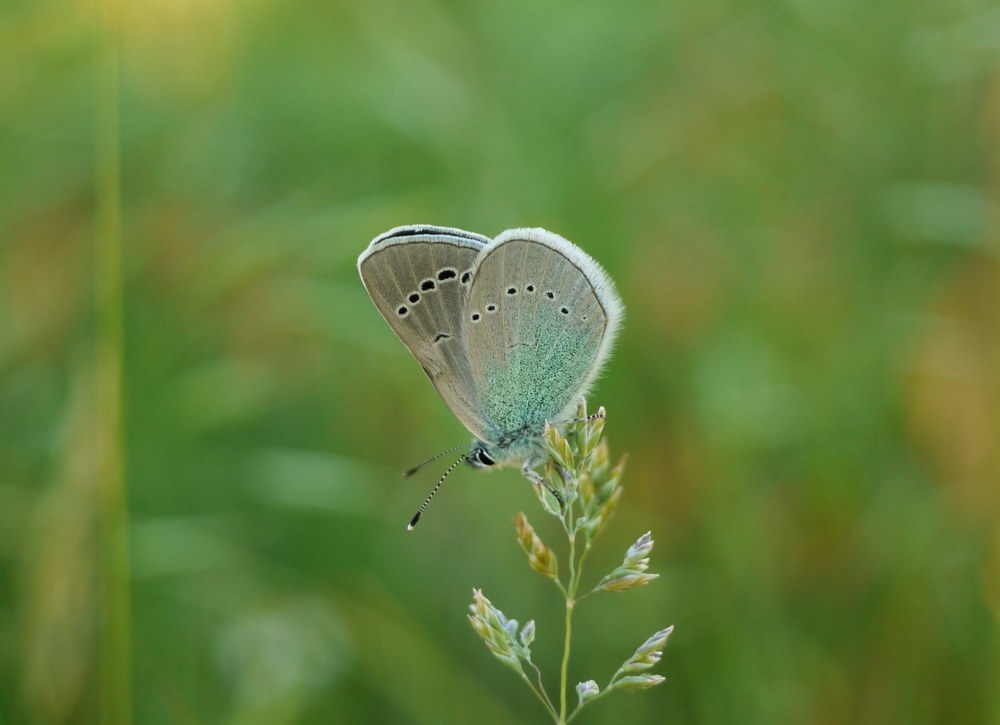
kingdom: Animalia
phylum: Arthropoda
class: Insecta
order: Lepidoptera
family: Lycaenidae
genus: Glaucopsyche
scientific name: Glaucopsyche alexis
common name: Green-underside blue
